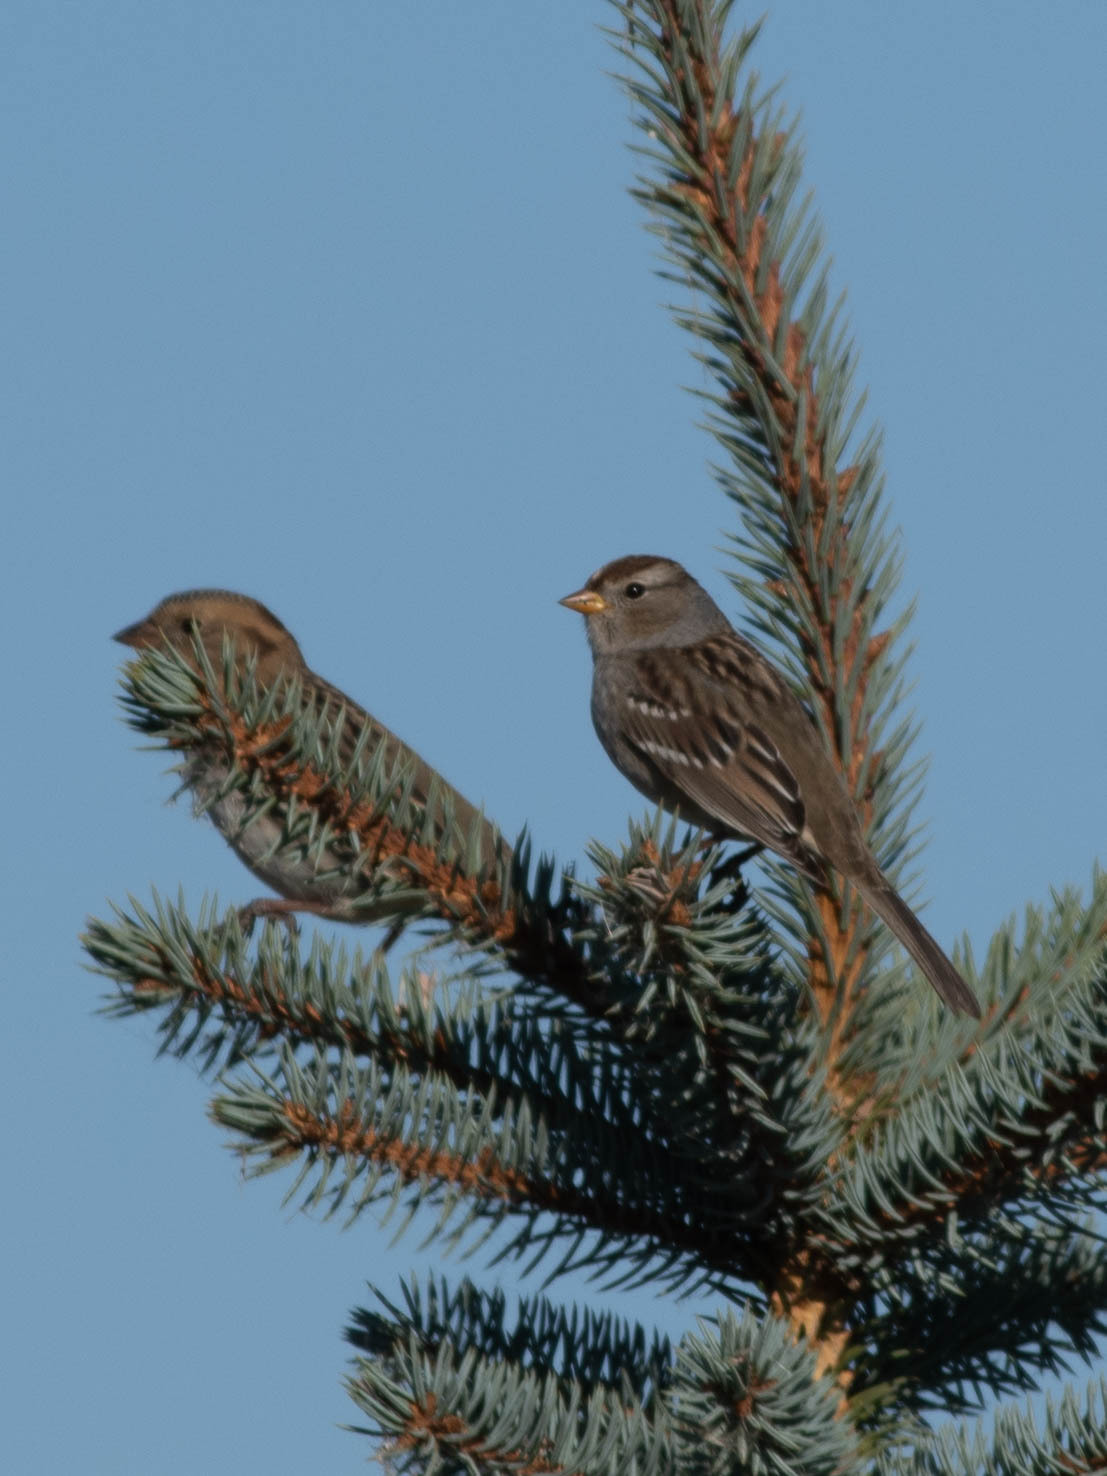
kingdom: Animalia
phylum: Chordata
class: Aves
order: Passeriformes
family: Passerellidae
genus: Zonotrichia
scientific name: Zonotrichia leucophrys
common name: White-crowned sparrow
